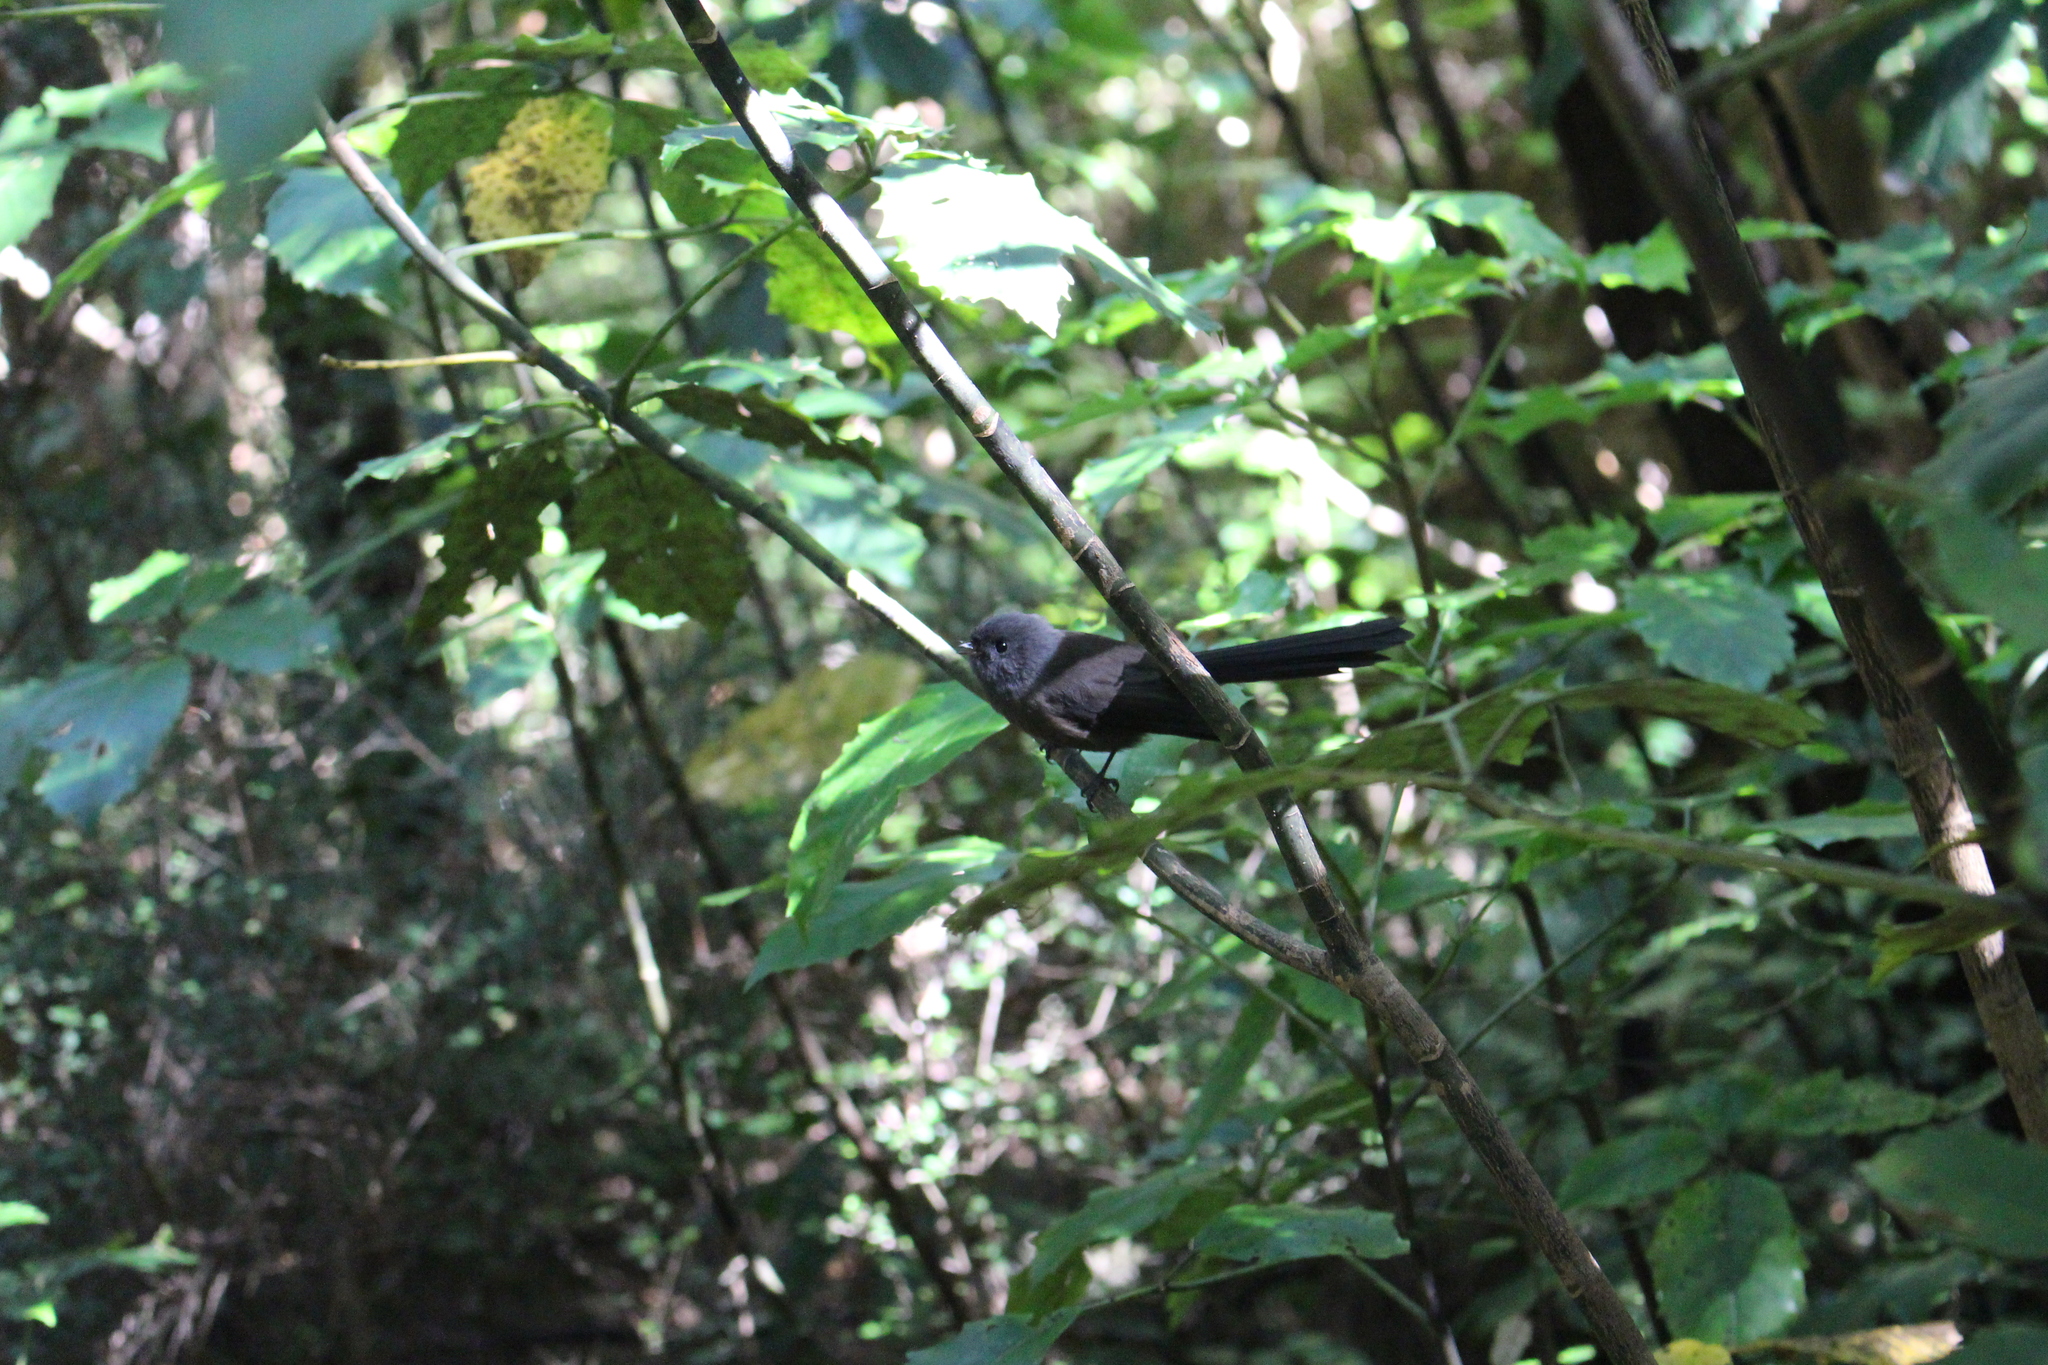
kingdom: Animalia
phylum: Chordata
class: Aves
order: Passeriformes
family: Rhipiduridae
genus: Rhipidura
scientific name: Rhipidura fuliginosa
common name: New zealand fantail
